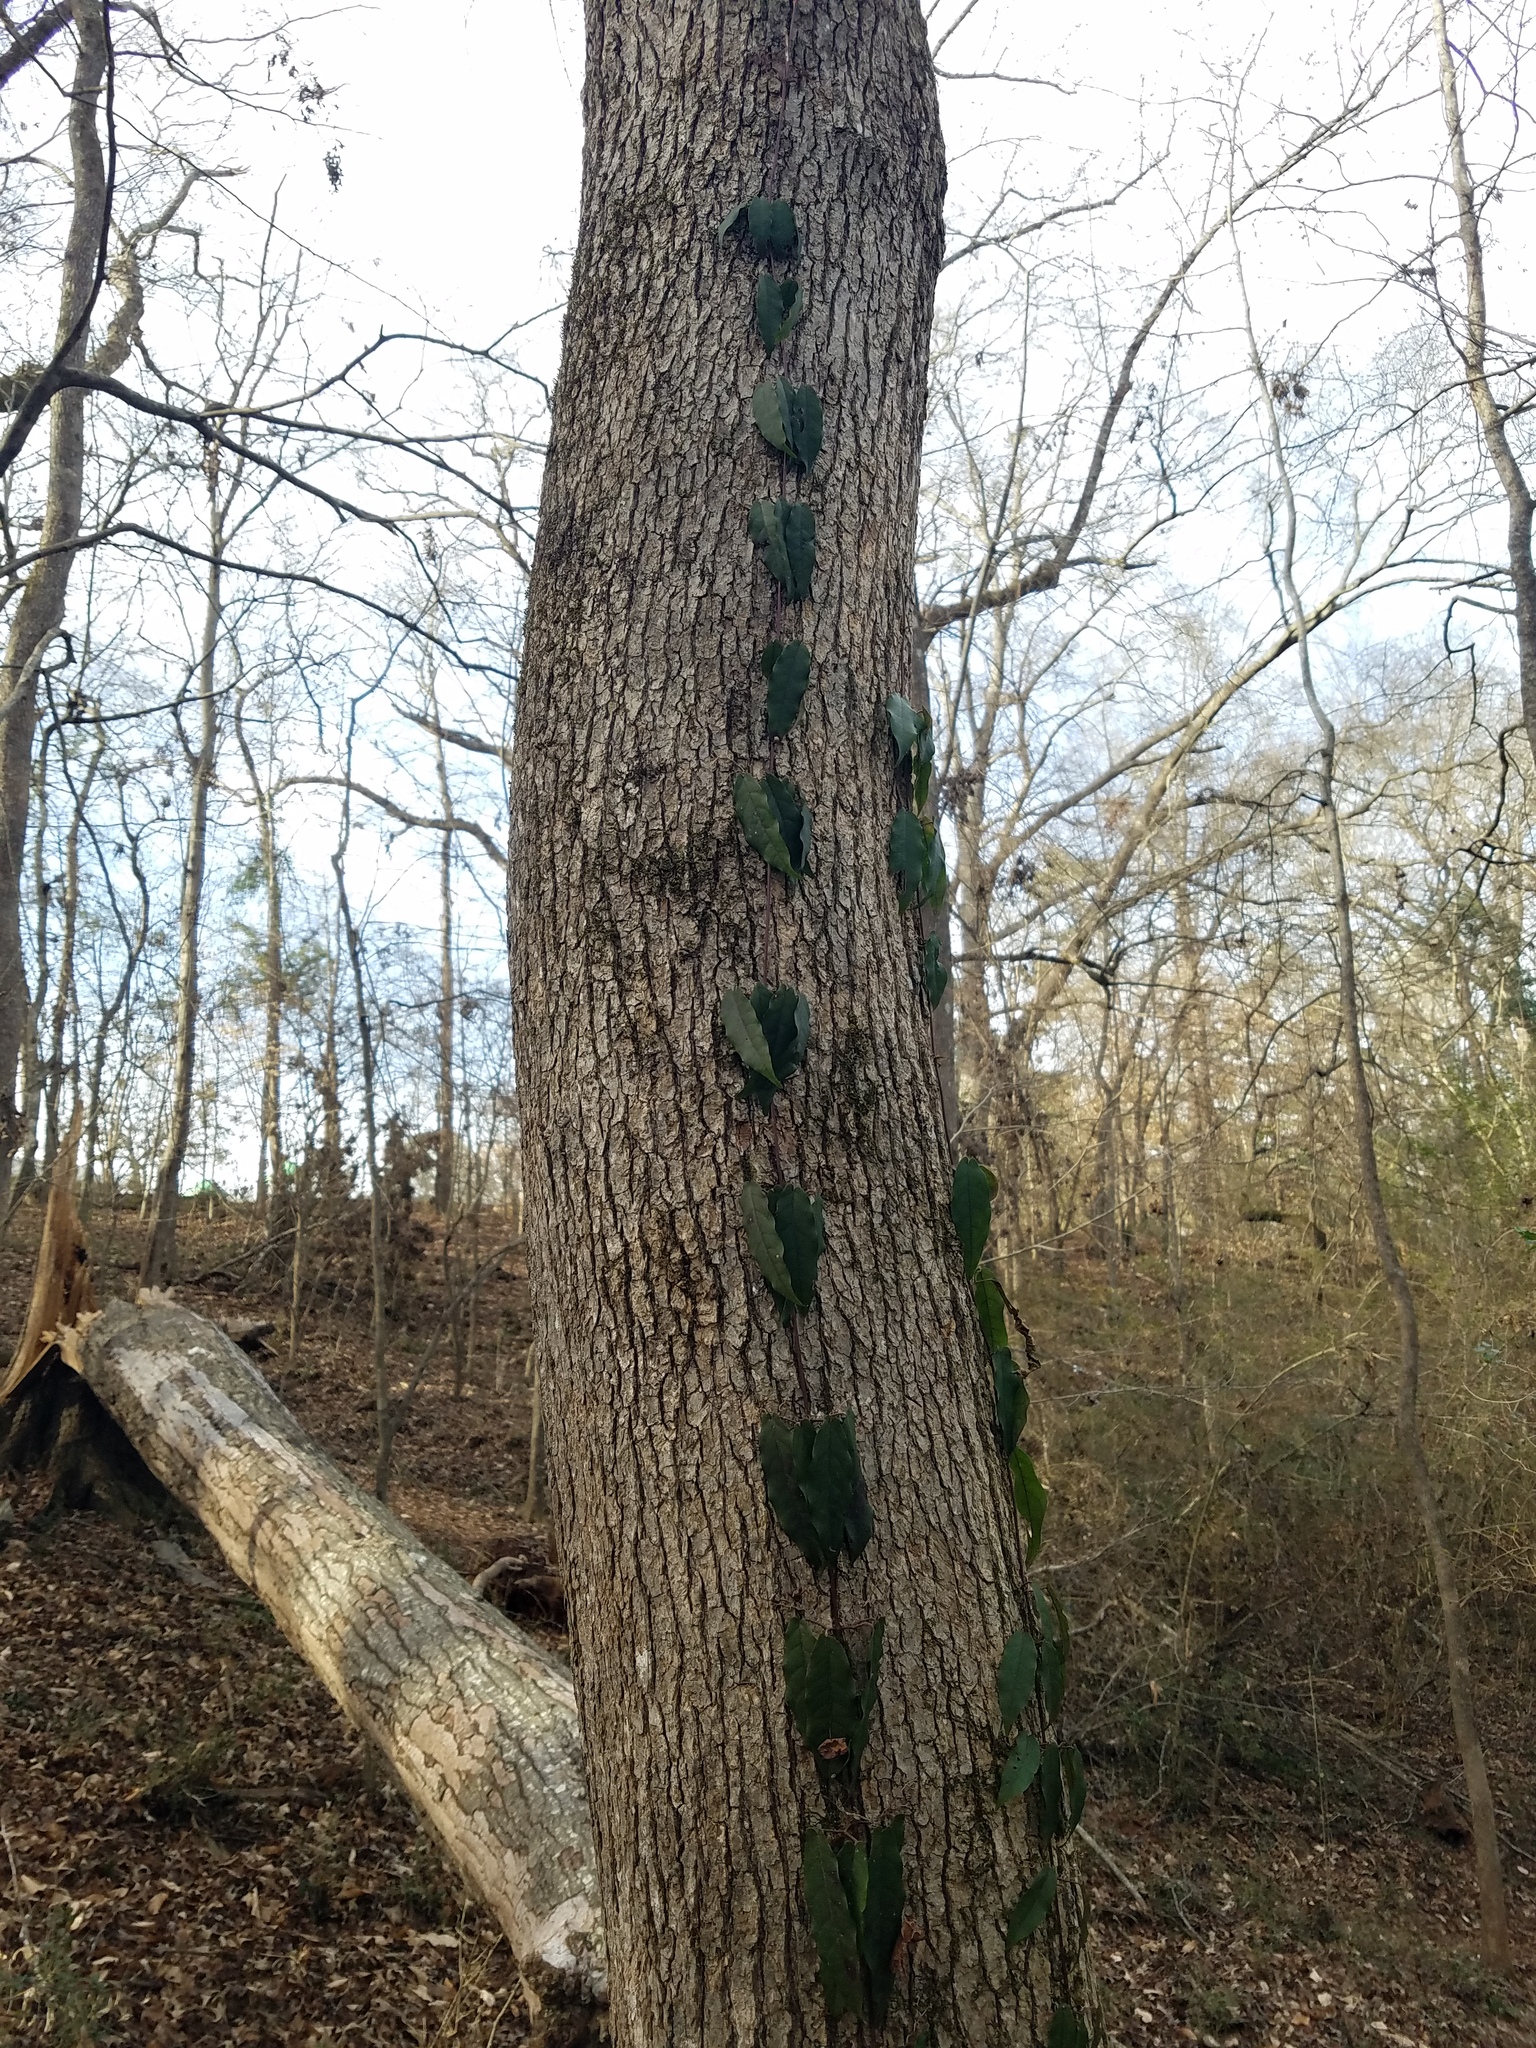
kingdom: Plantae
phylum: Tracheophyta
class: Magnoliopsida
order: Lamiales
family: Bignoniaceae
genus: Bignonia
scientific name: Bignonia capreolata
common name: Crossvine
